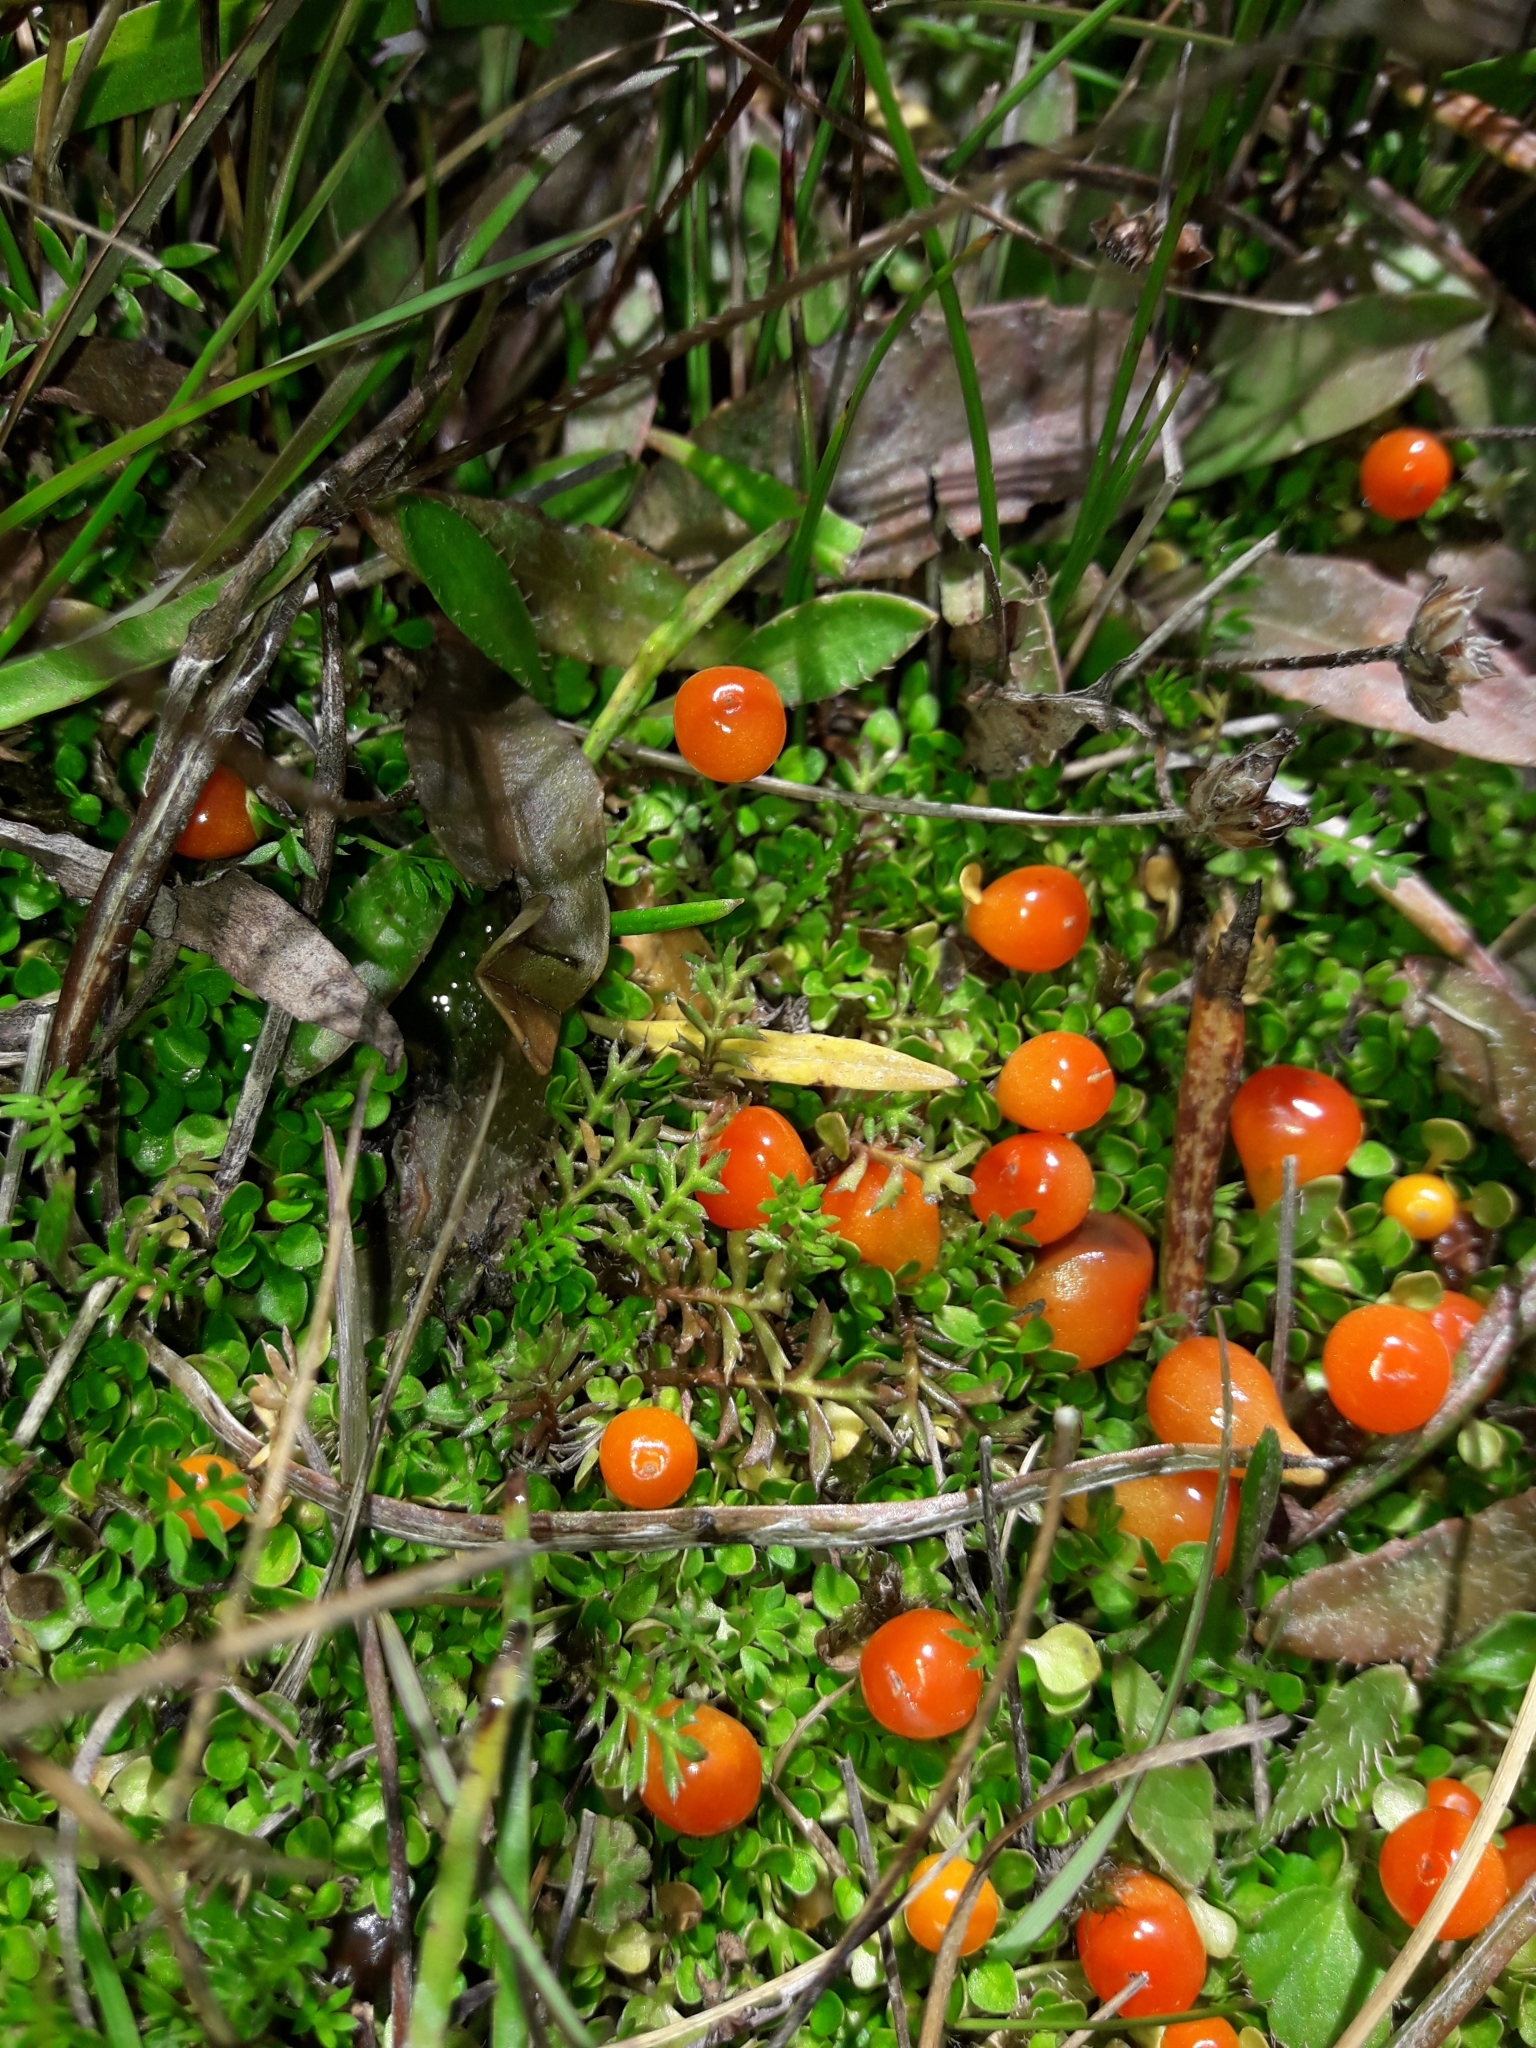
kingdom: Plantae
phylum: Tracheophyta
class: Magnoliopsida
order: Gentianales
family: Rubiaceae
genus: Nertera
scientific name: Nertera balfouriana
